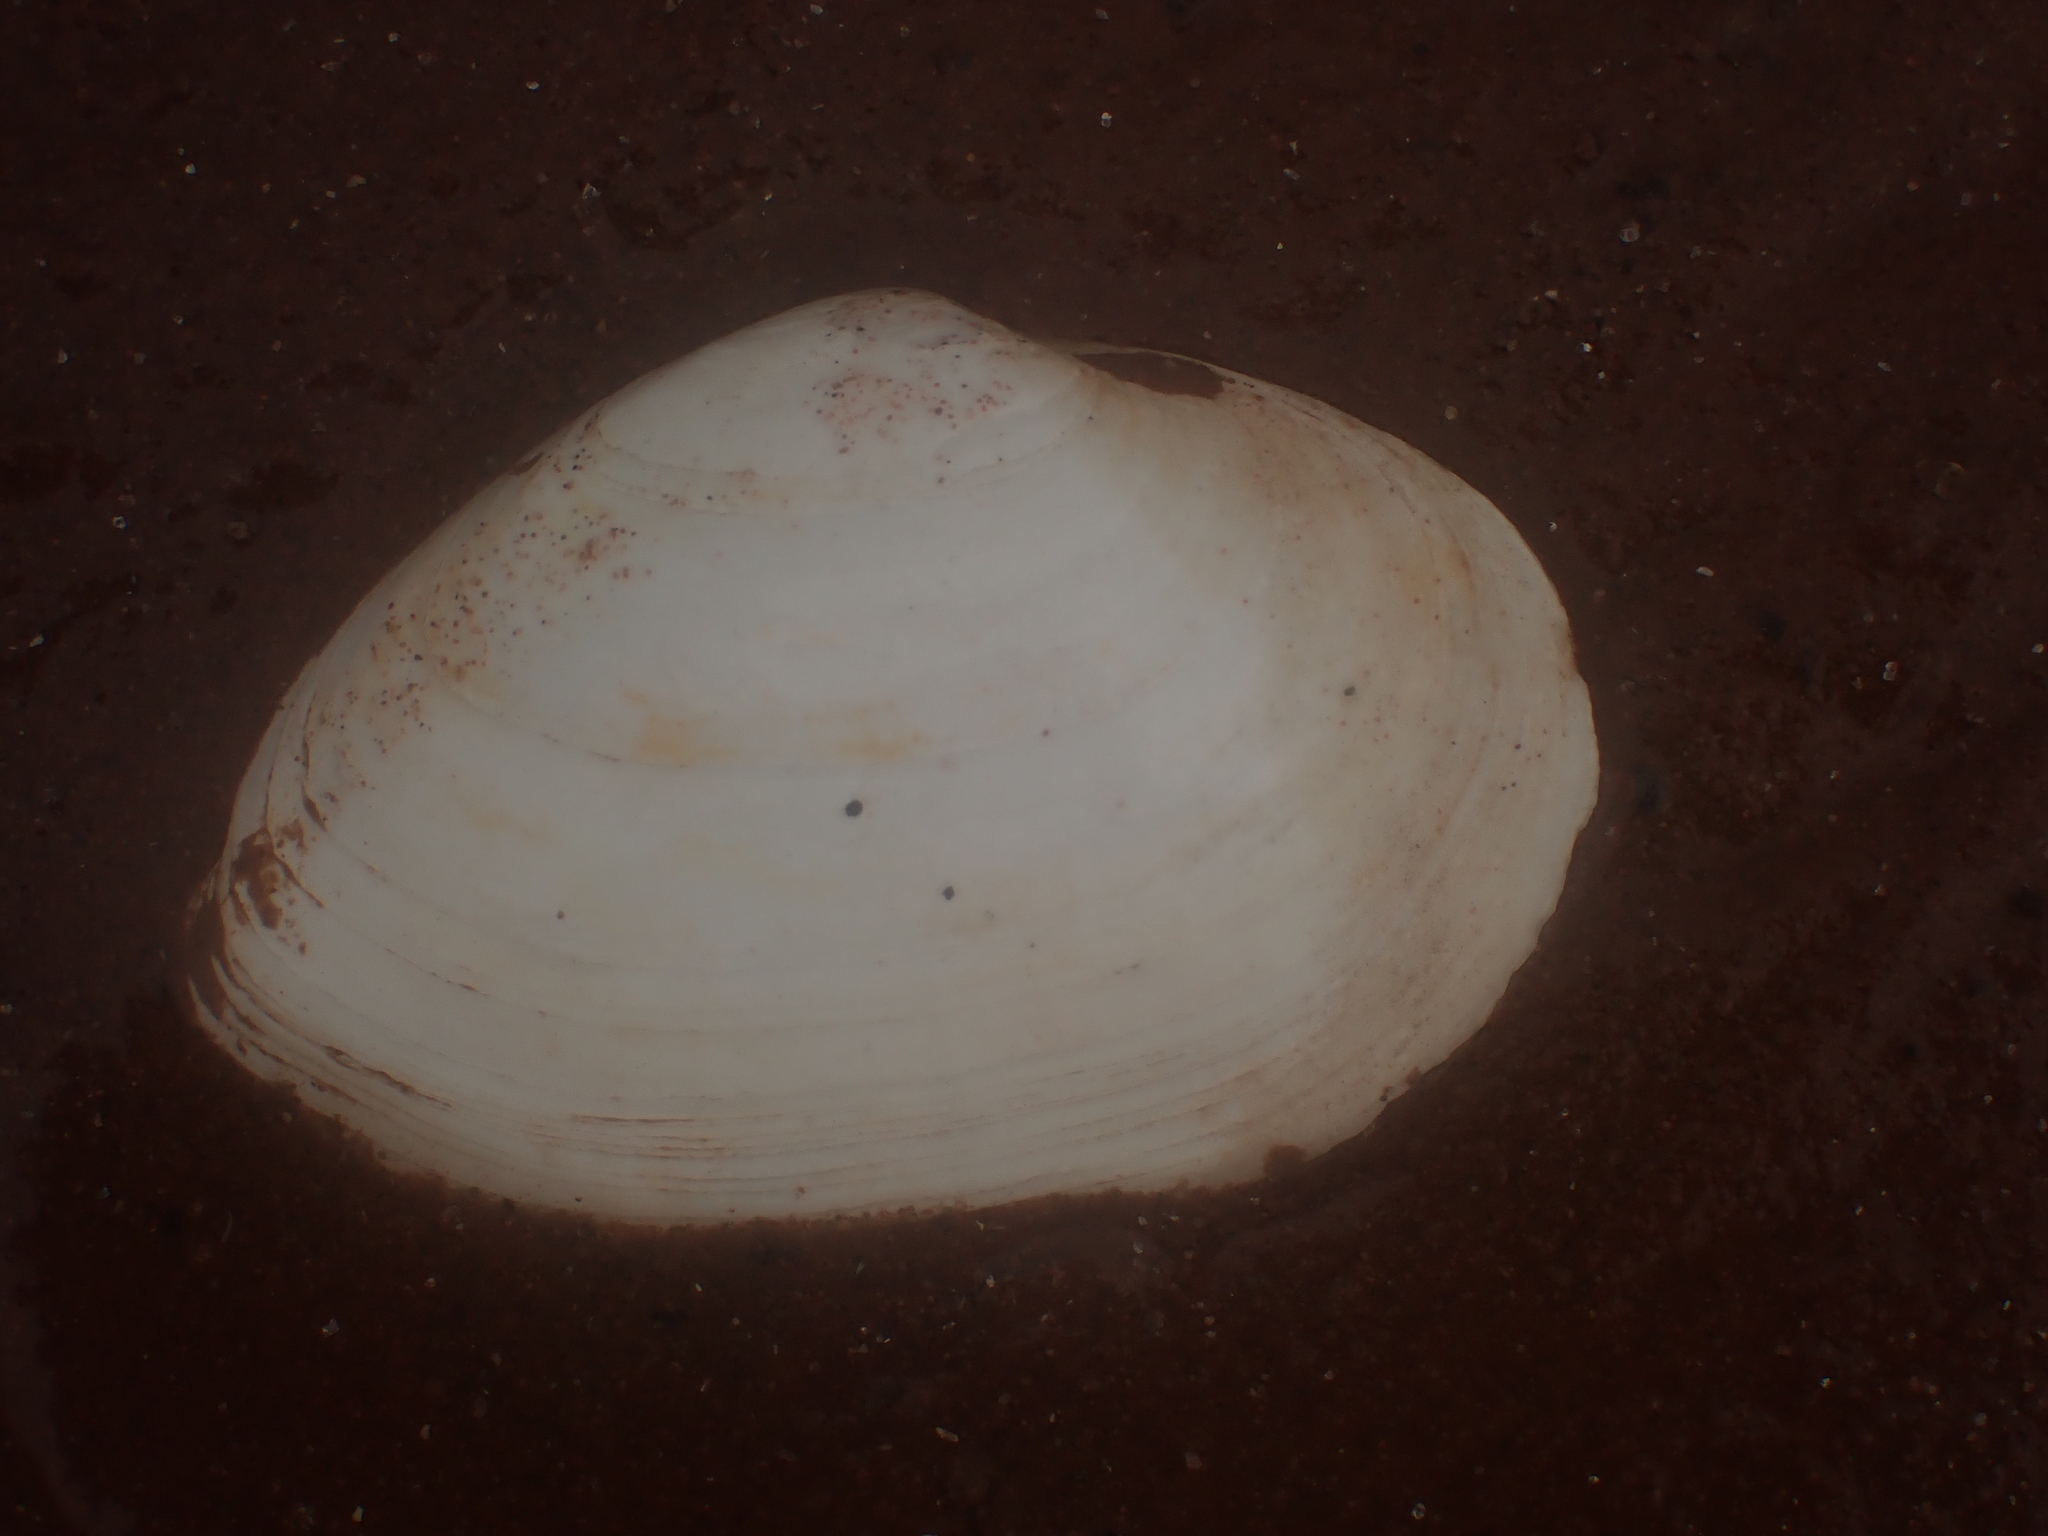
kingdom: Animalia
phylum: Mollusca
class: Bivalvia
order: Myida
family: Myidae
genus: Mya
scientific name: Mya arenaria
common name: Soft-shelled clam
